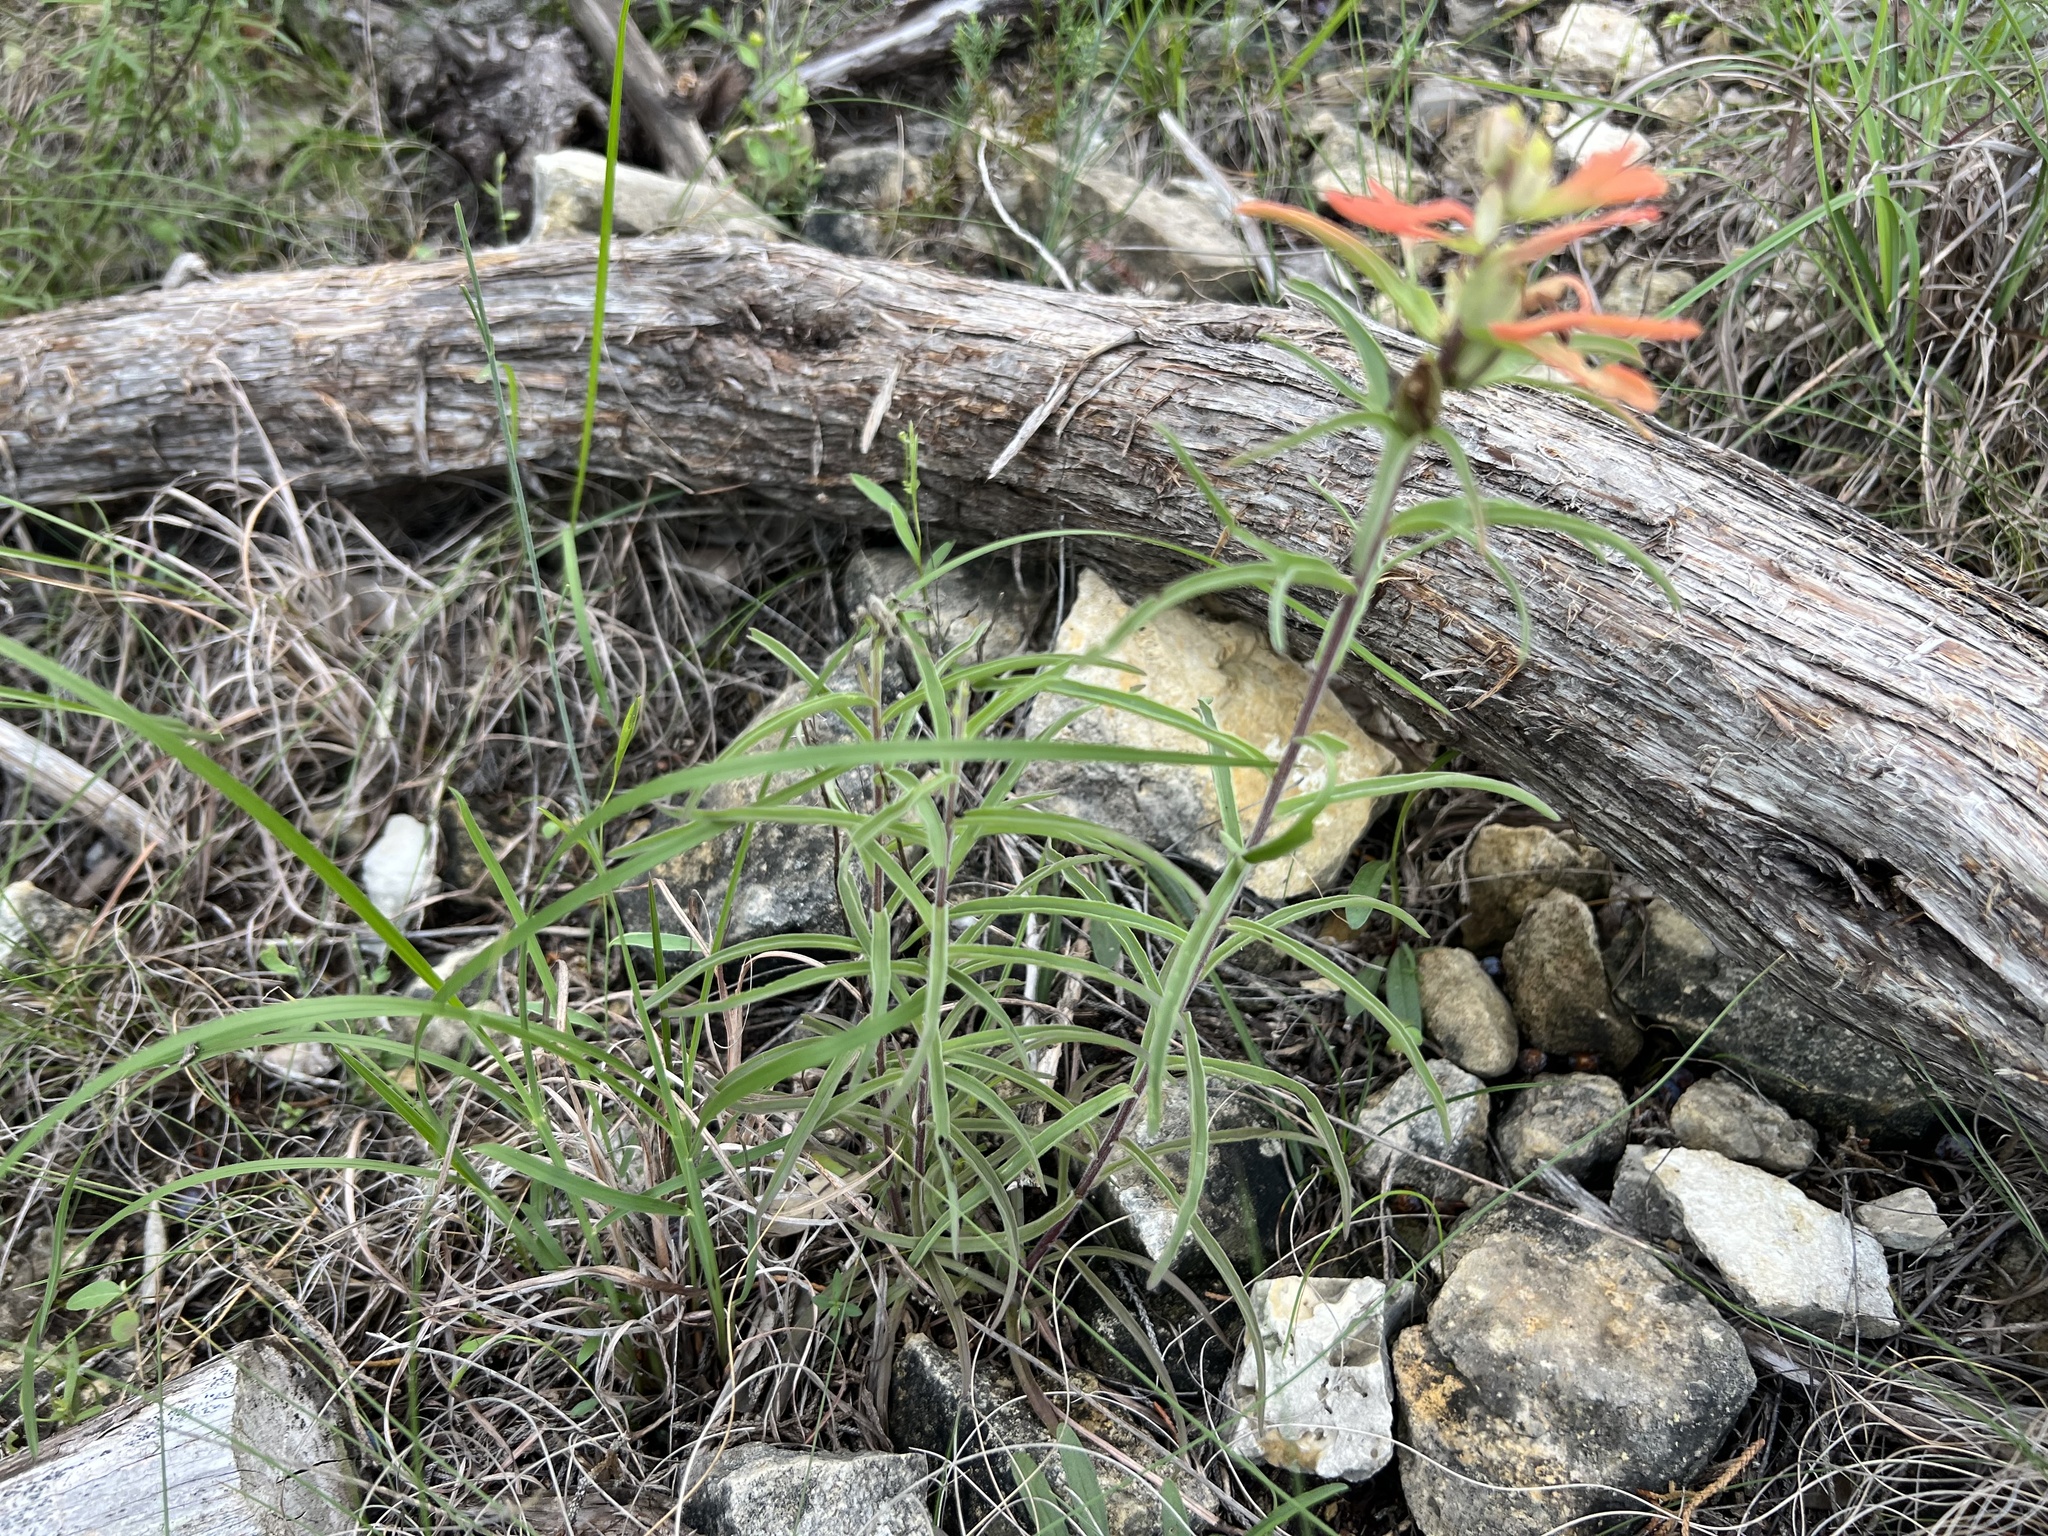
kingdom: Plantae
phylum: Tracheophyta
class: Magnoliopsida
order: Lamiales
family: Orobanchaceae
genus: Castilleja
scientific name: Castilleja lindheimeri
